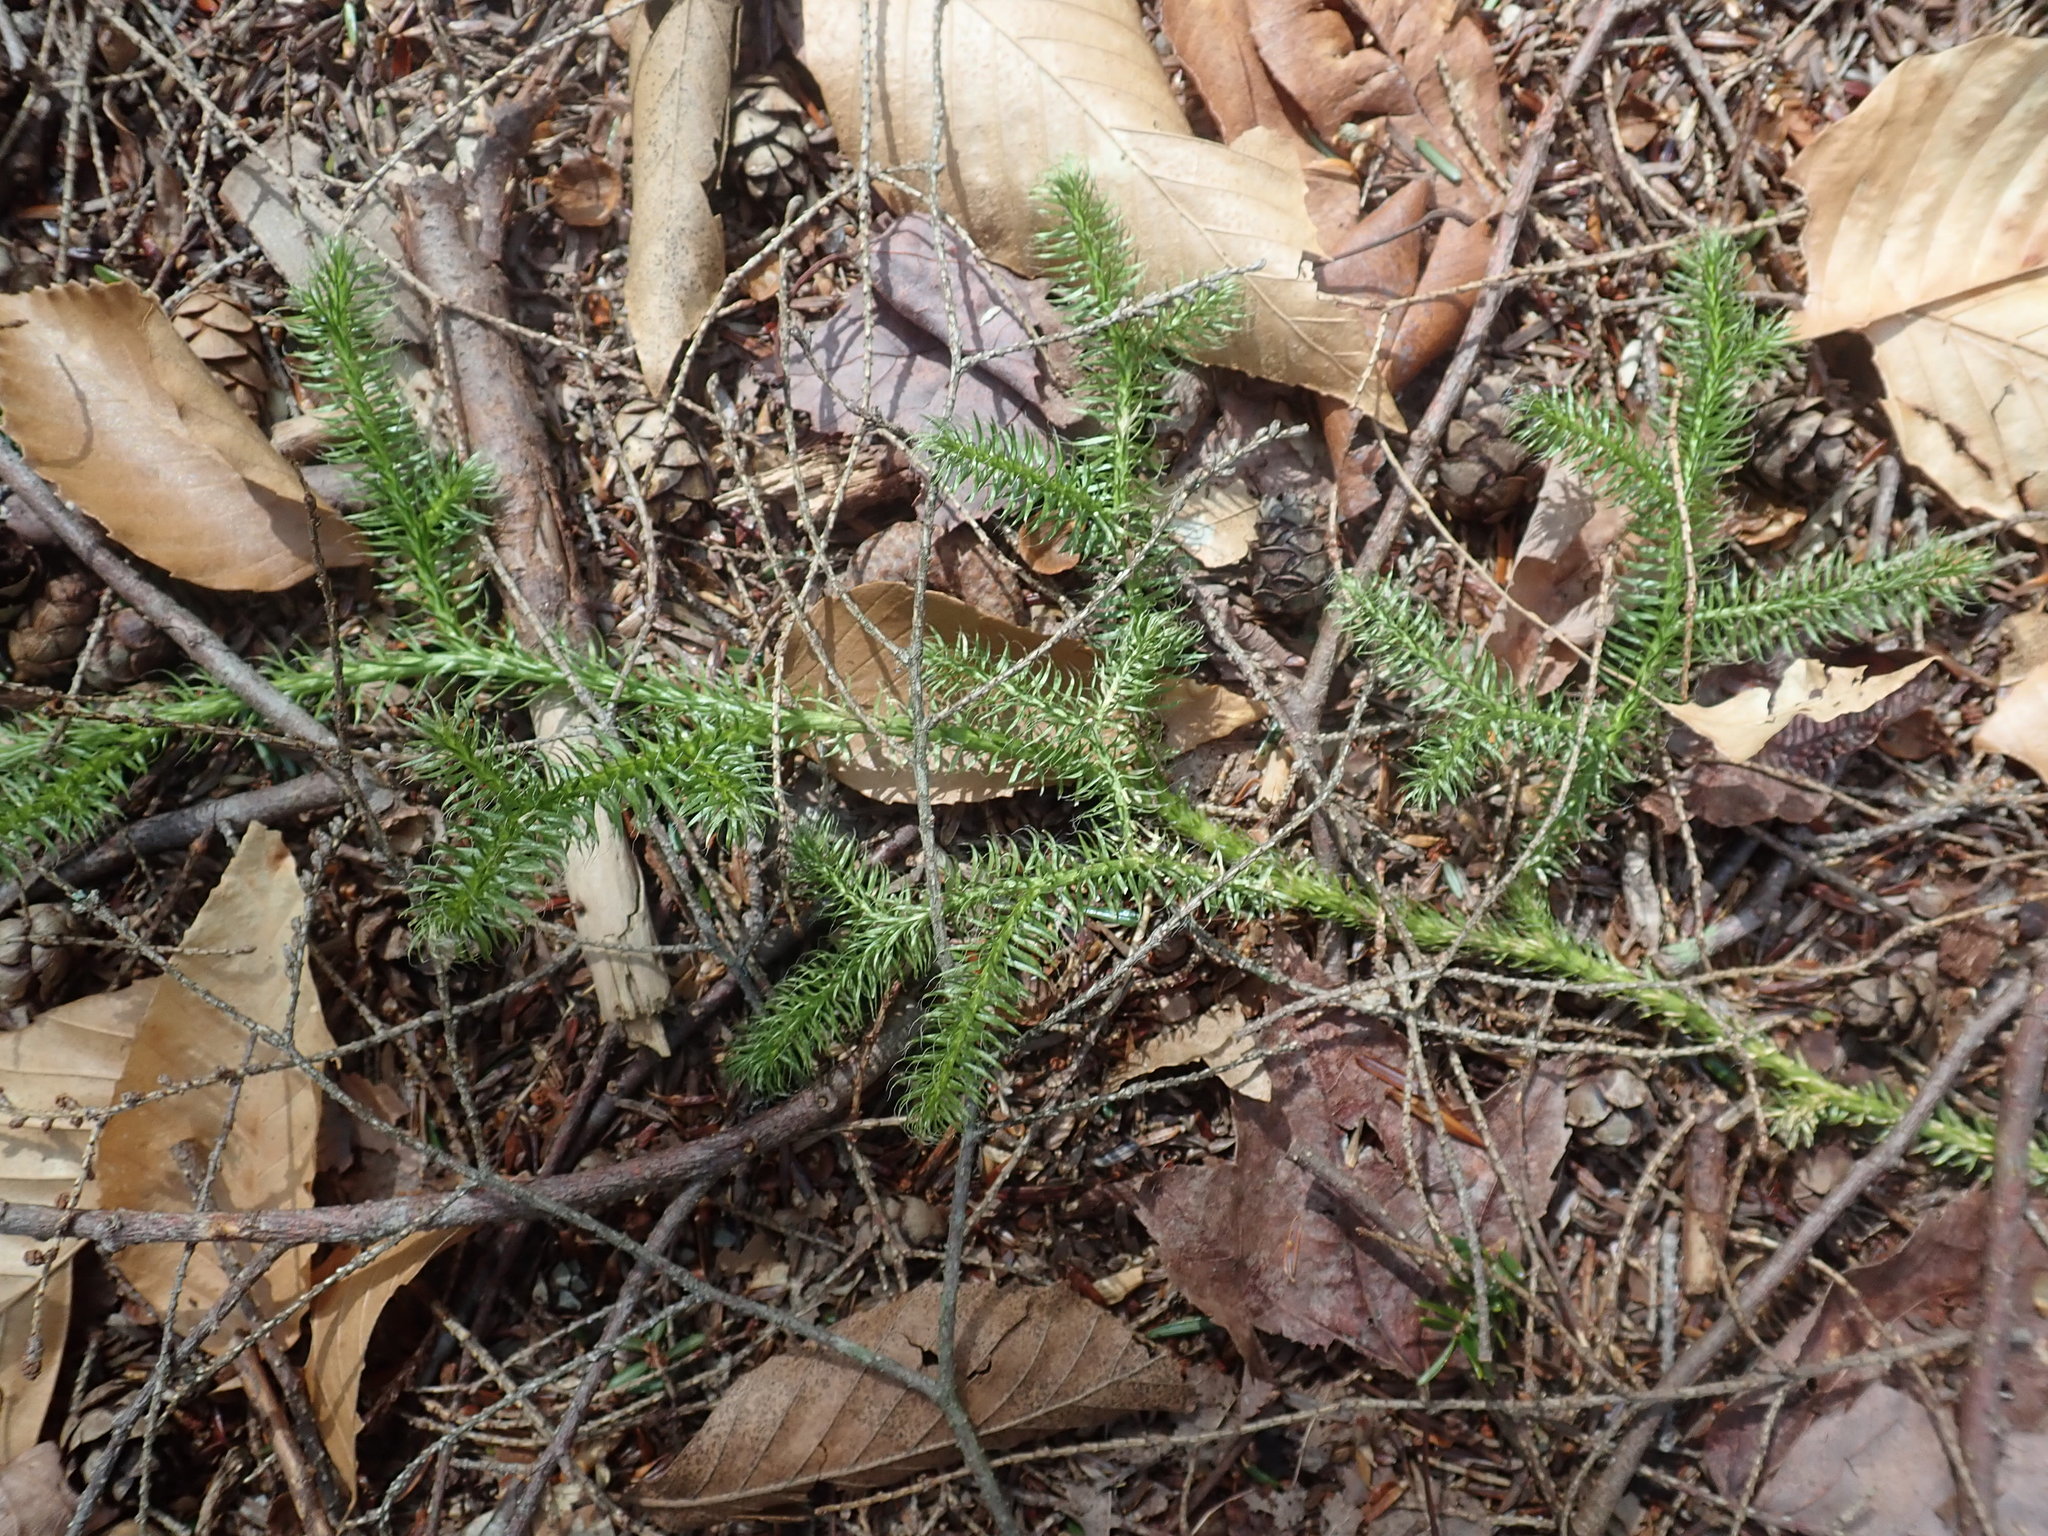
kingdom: Plantae
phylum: Tracheophyta
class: Lycopodiopsida
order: Lycopodiales
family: Lycopodiaceae
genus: Lycopodium
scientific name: Lycopodium clavatum
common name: Stag's-horn clubmoss
